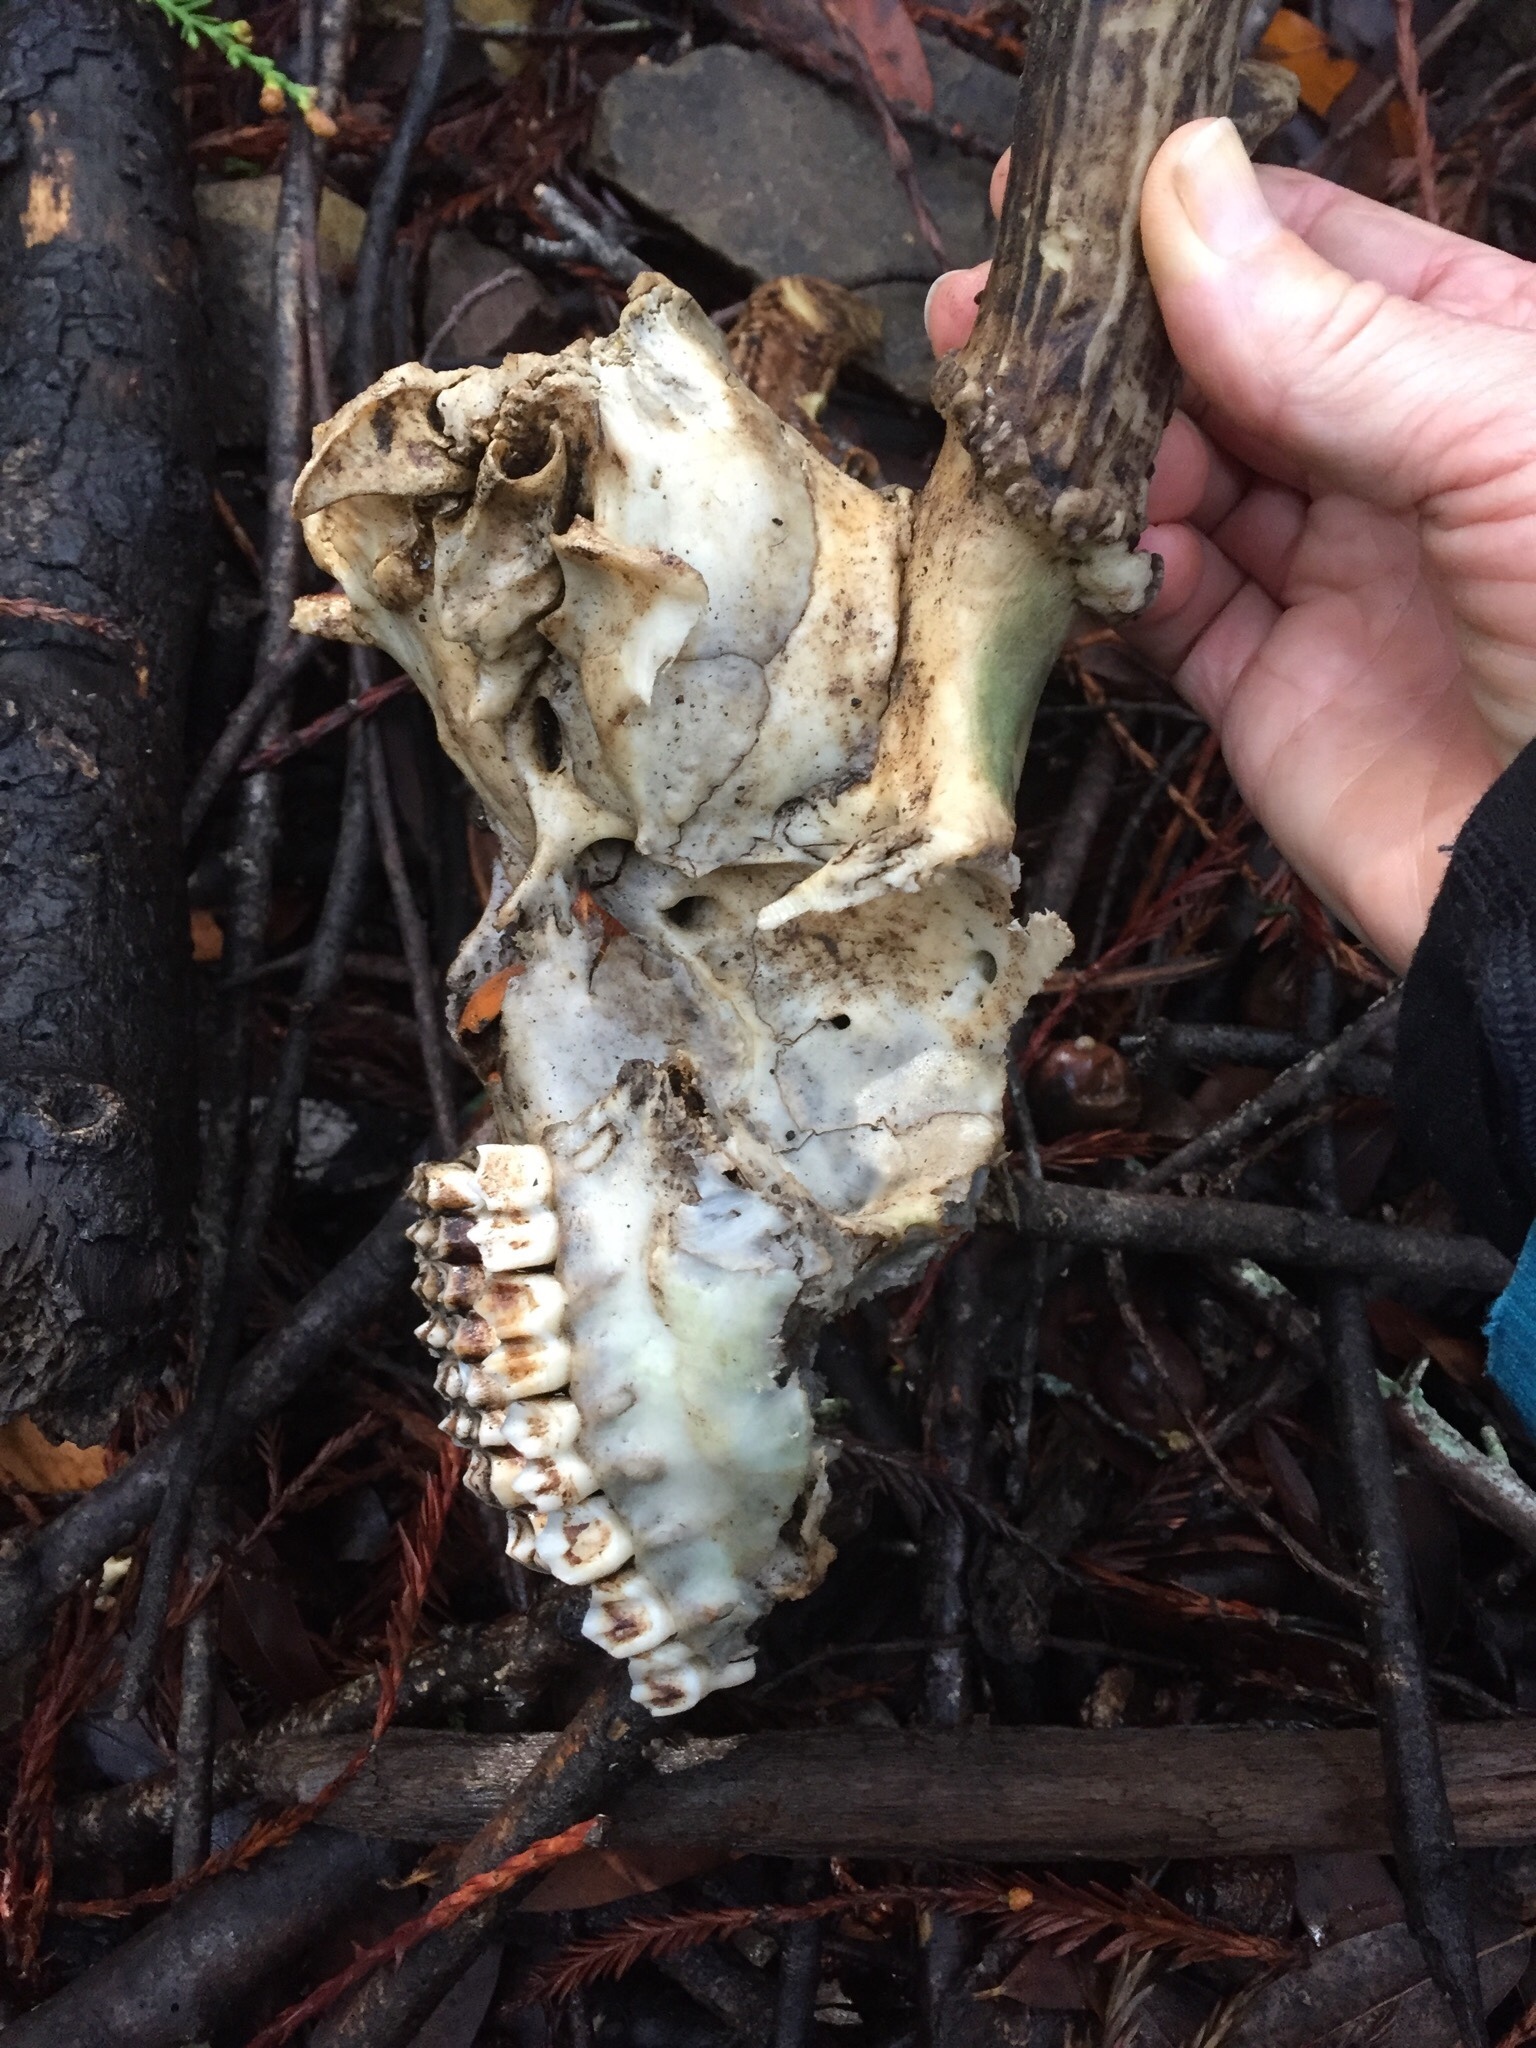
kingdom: Animalia
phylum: Chordata
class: Mammalia
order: Artiodactyla
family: Cervidae
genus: Odocoileus
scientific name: Odocoileus hemionus
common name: Mule deer
